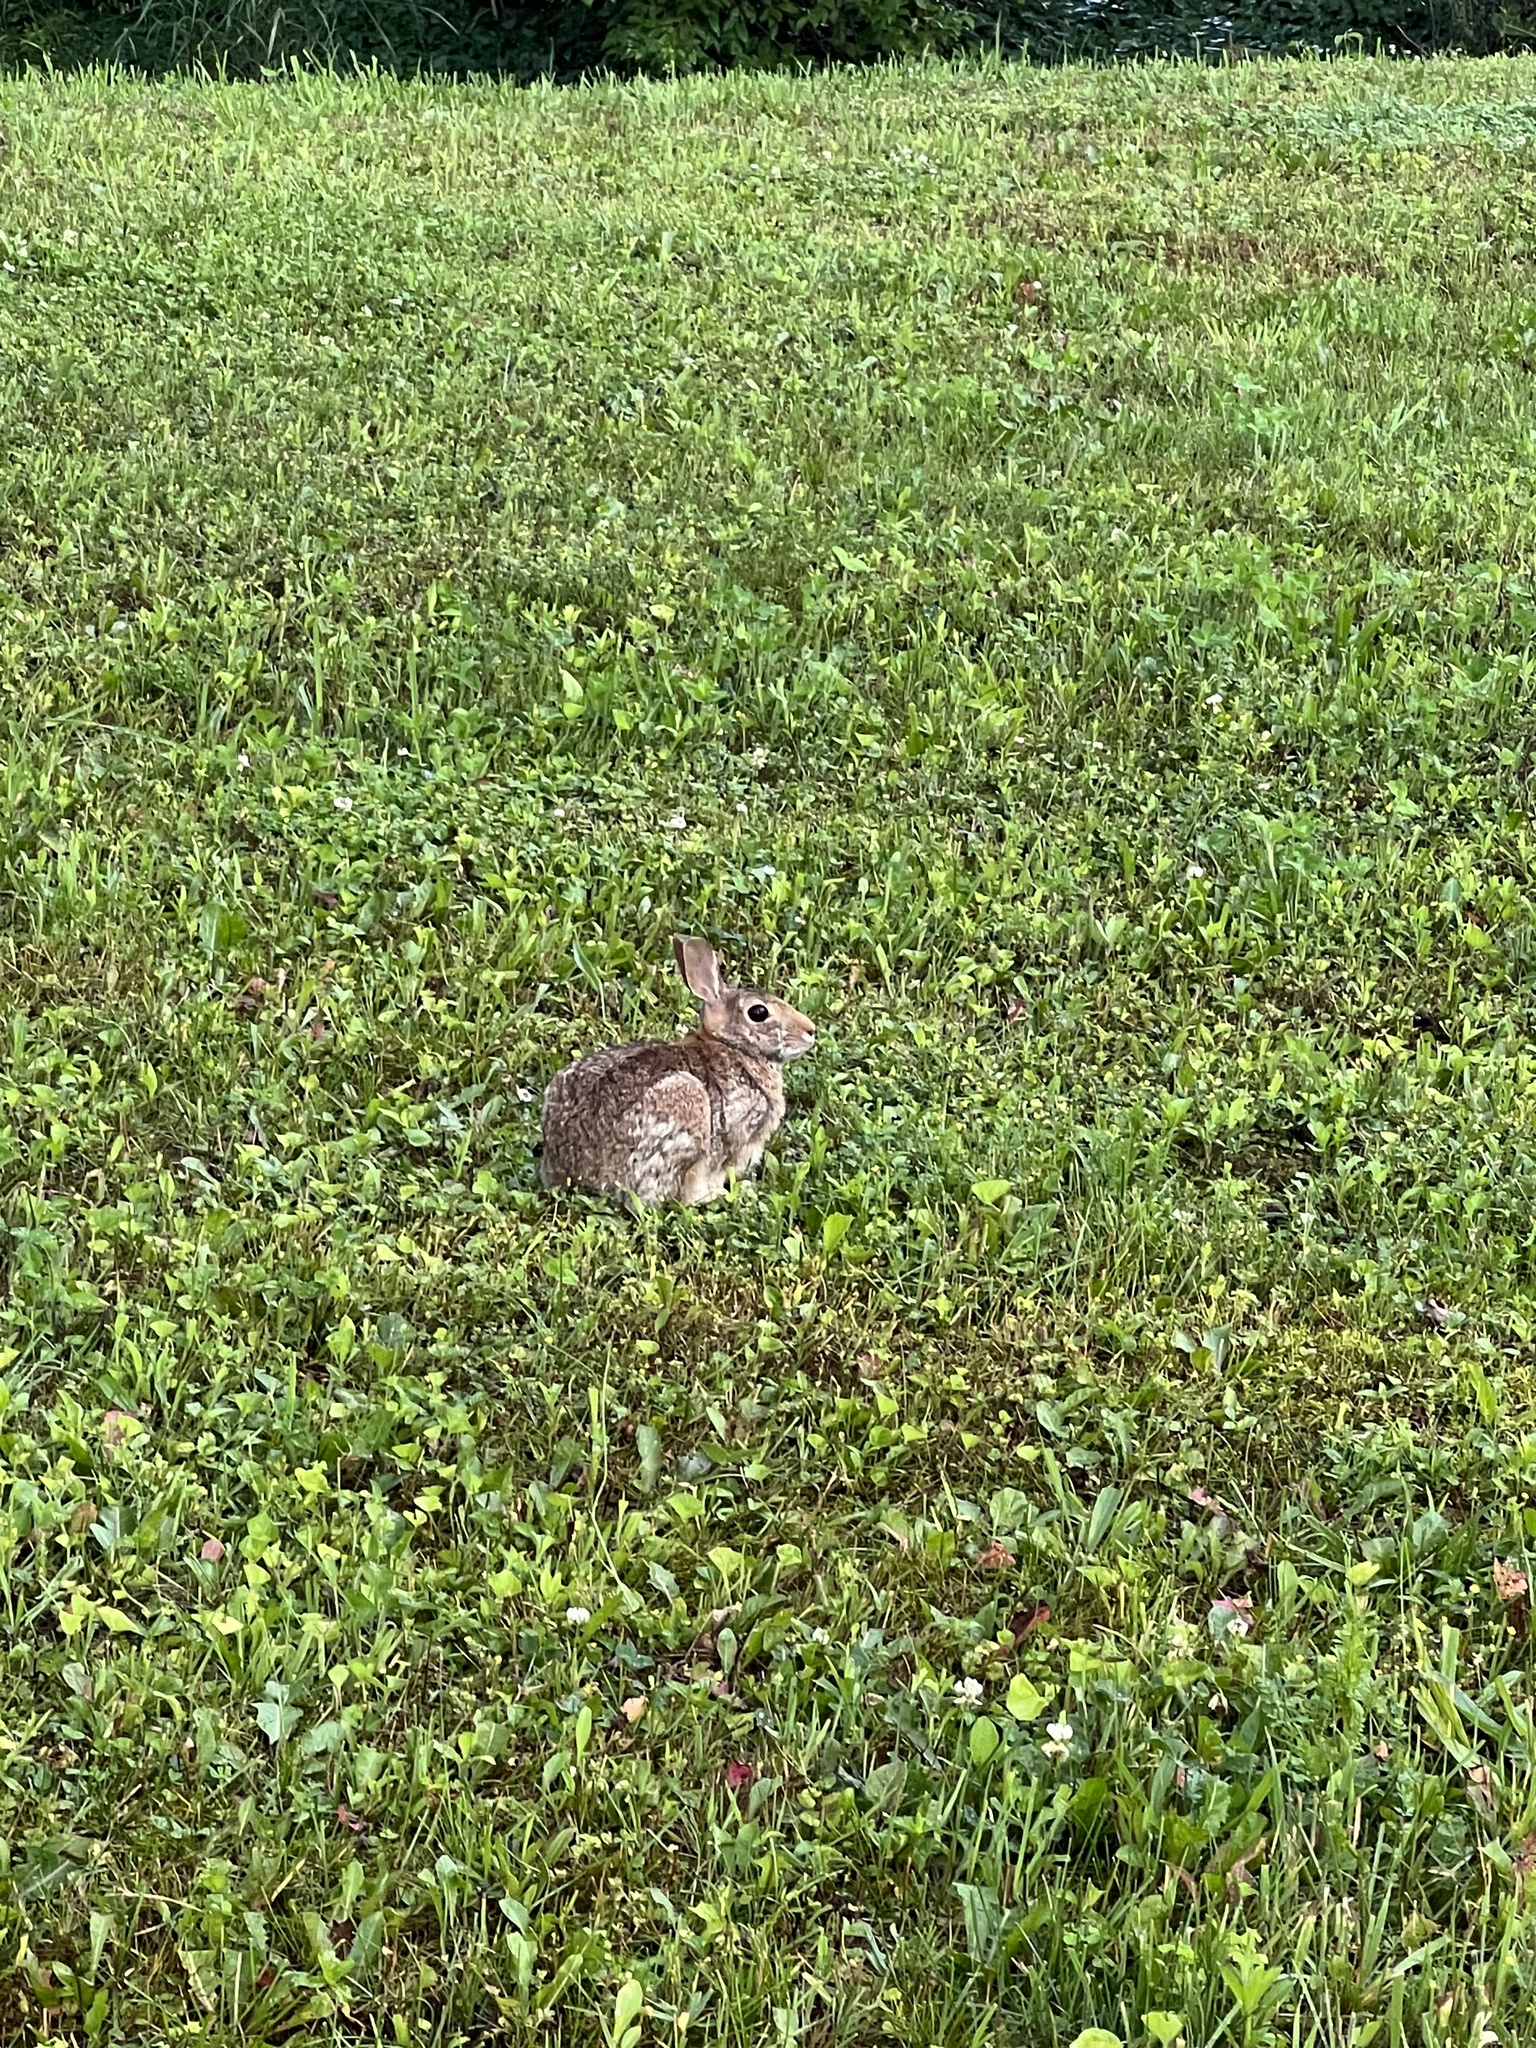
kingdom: Animalia
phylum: Chordata
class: Mammalia
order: Lagomorpha
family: Leporidae
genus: Sylvilagus
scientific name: Sylvilagus floridanus
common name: Eastern cottontail
